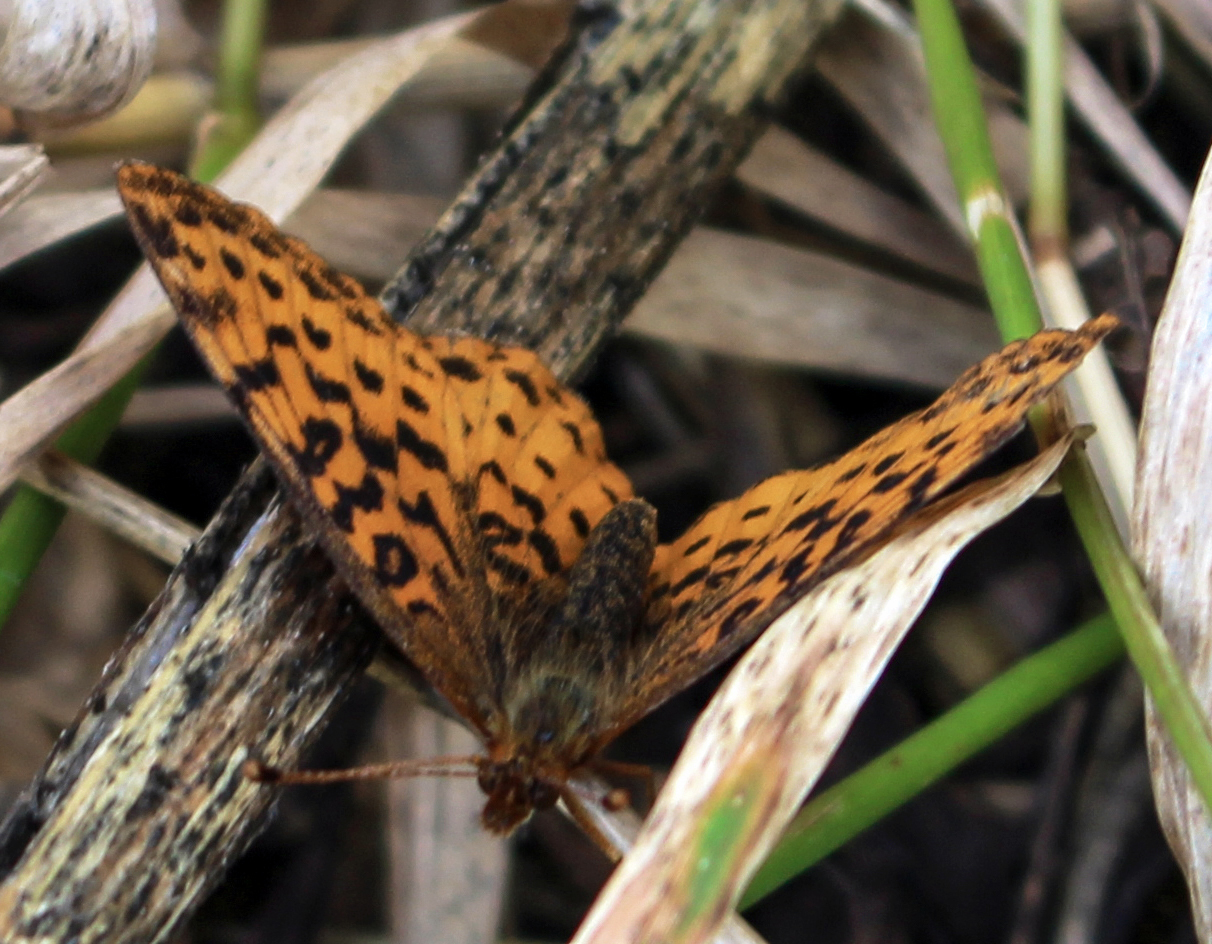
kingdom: Animalia
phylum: Arthropoda
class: Insecta
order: Lepidoptera
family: Nymphalidae
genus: Clossiana
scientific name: Clossiana toddi
